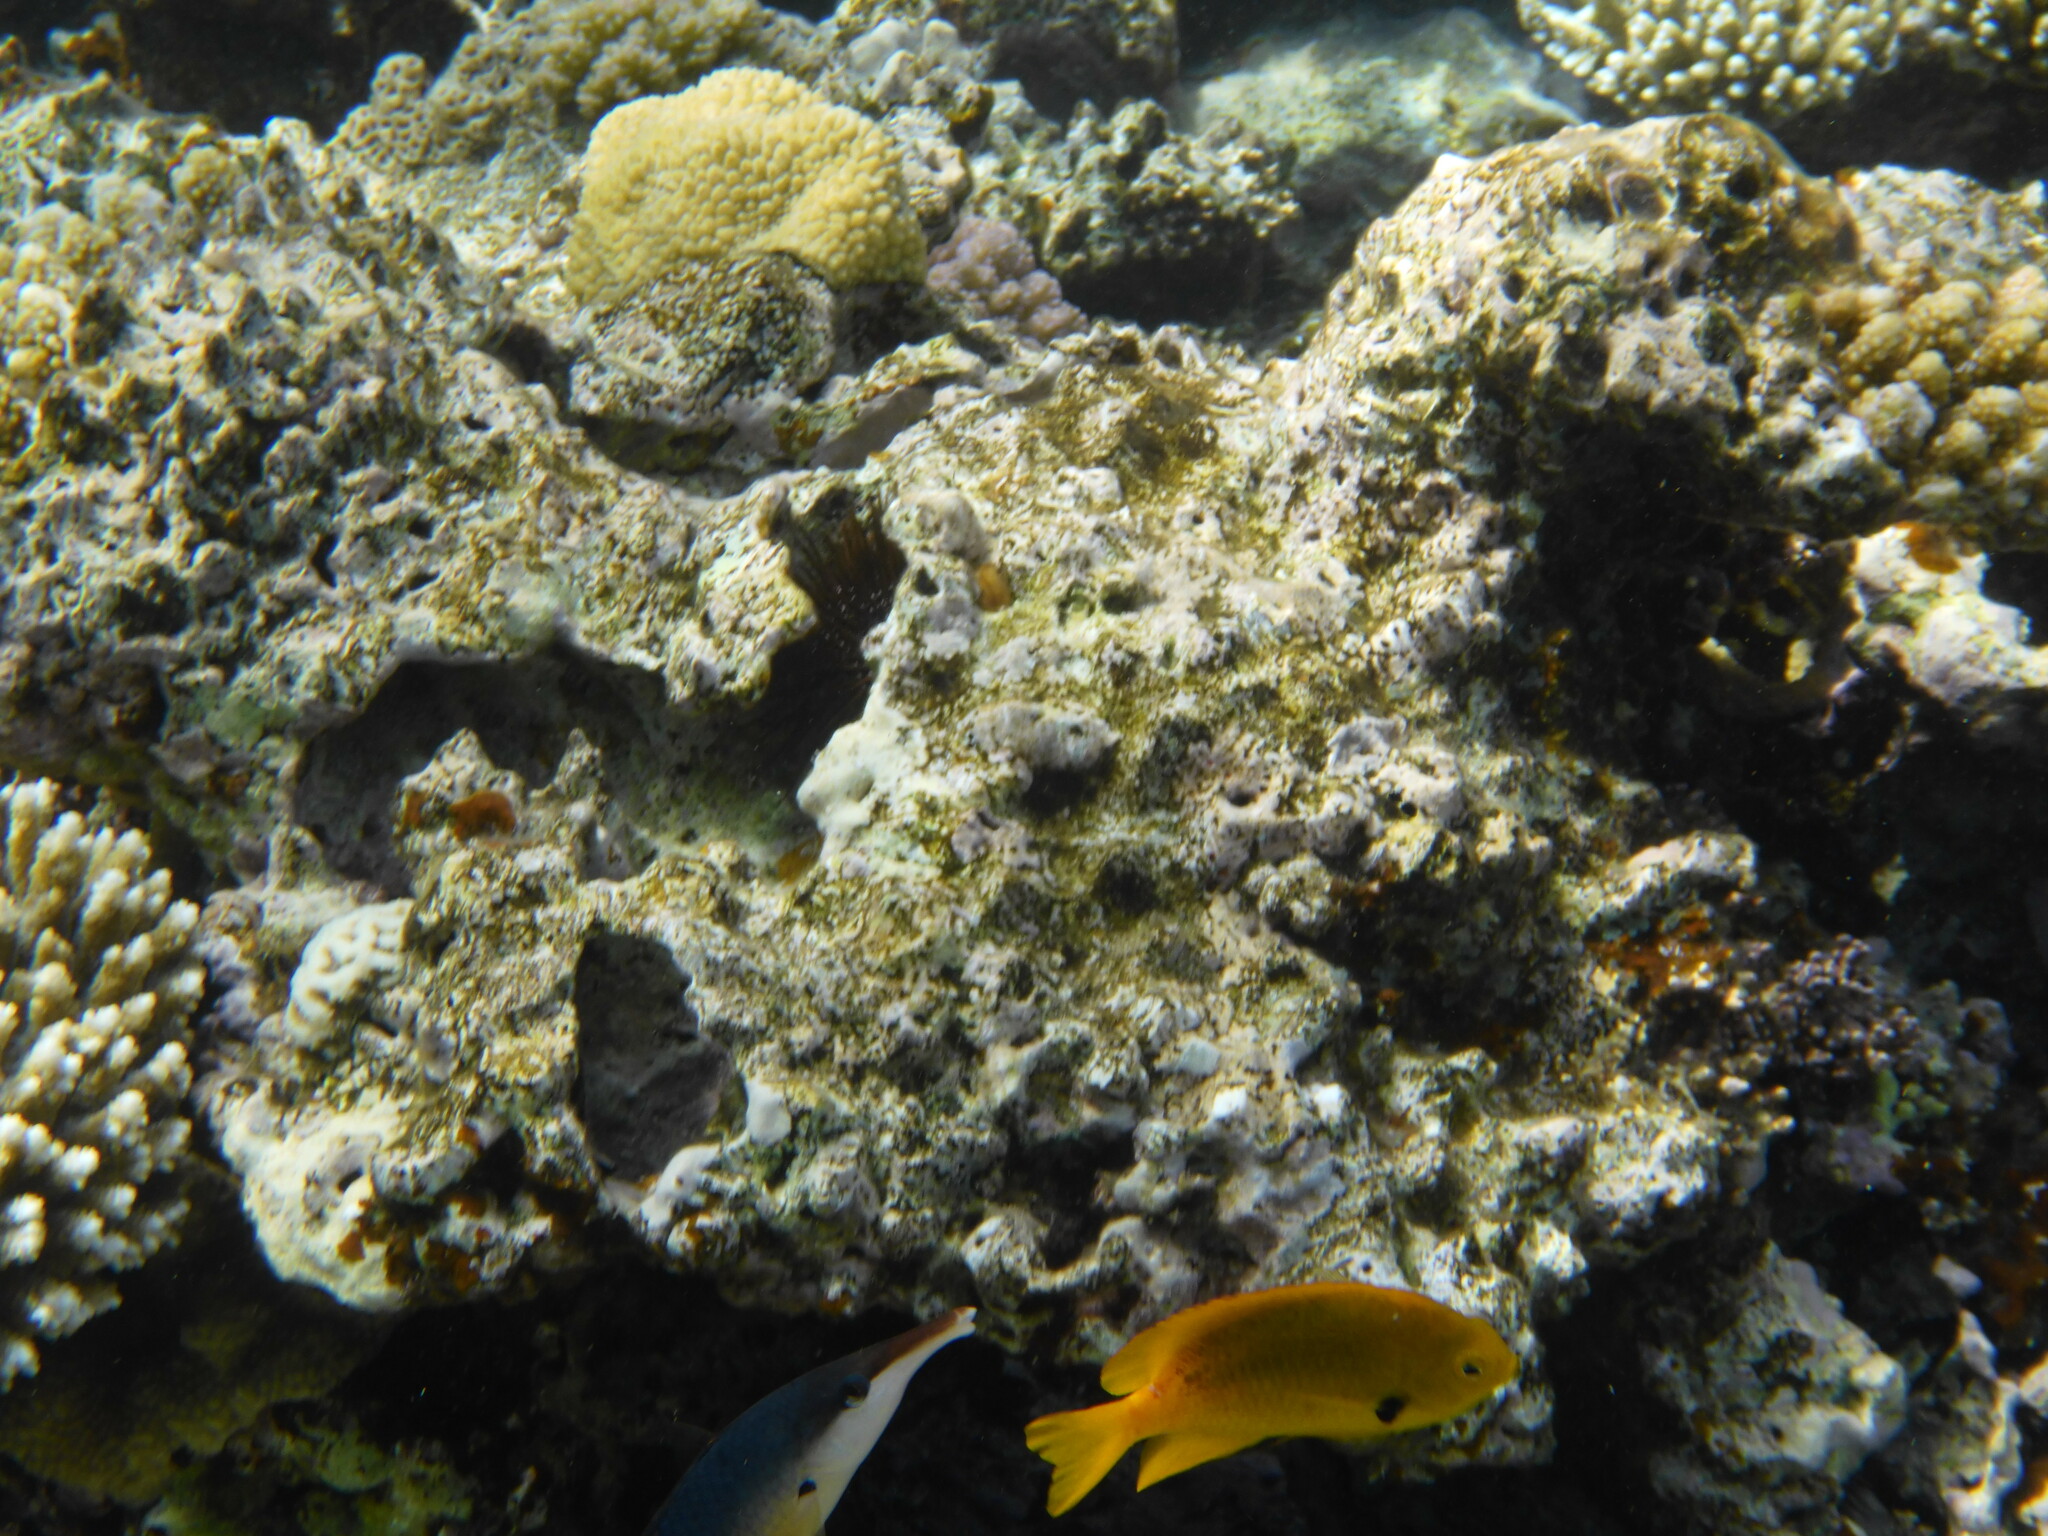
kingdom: Animalia
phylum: Chordata
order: Perciformes
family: Pomacentridae
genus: Pomacentrus
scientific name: Pomacentrus sulfureus
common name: Sulfur damsel
